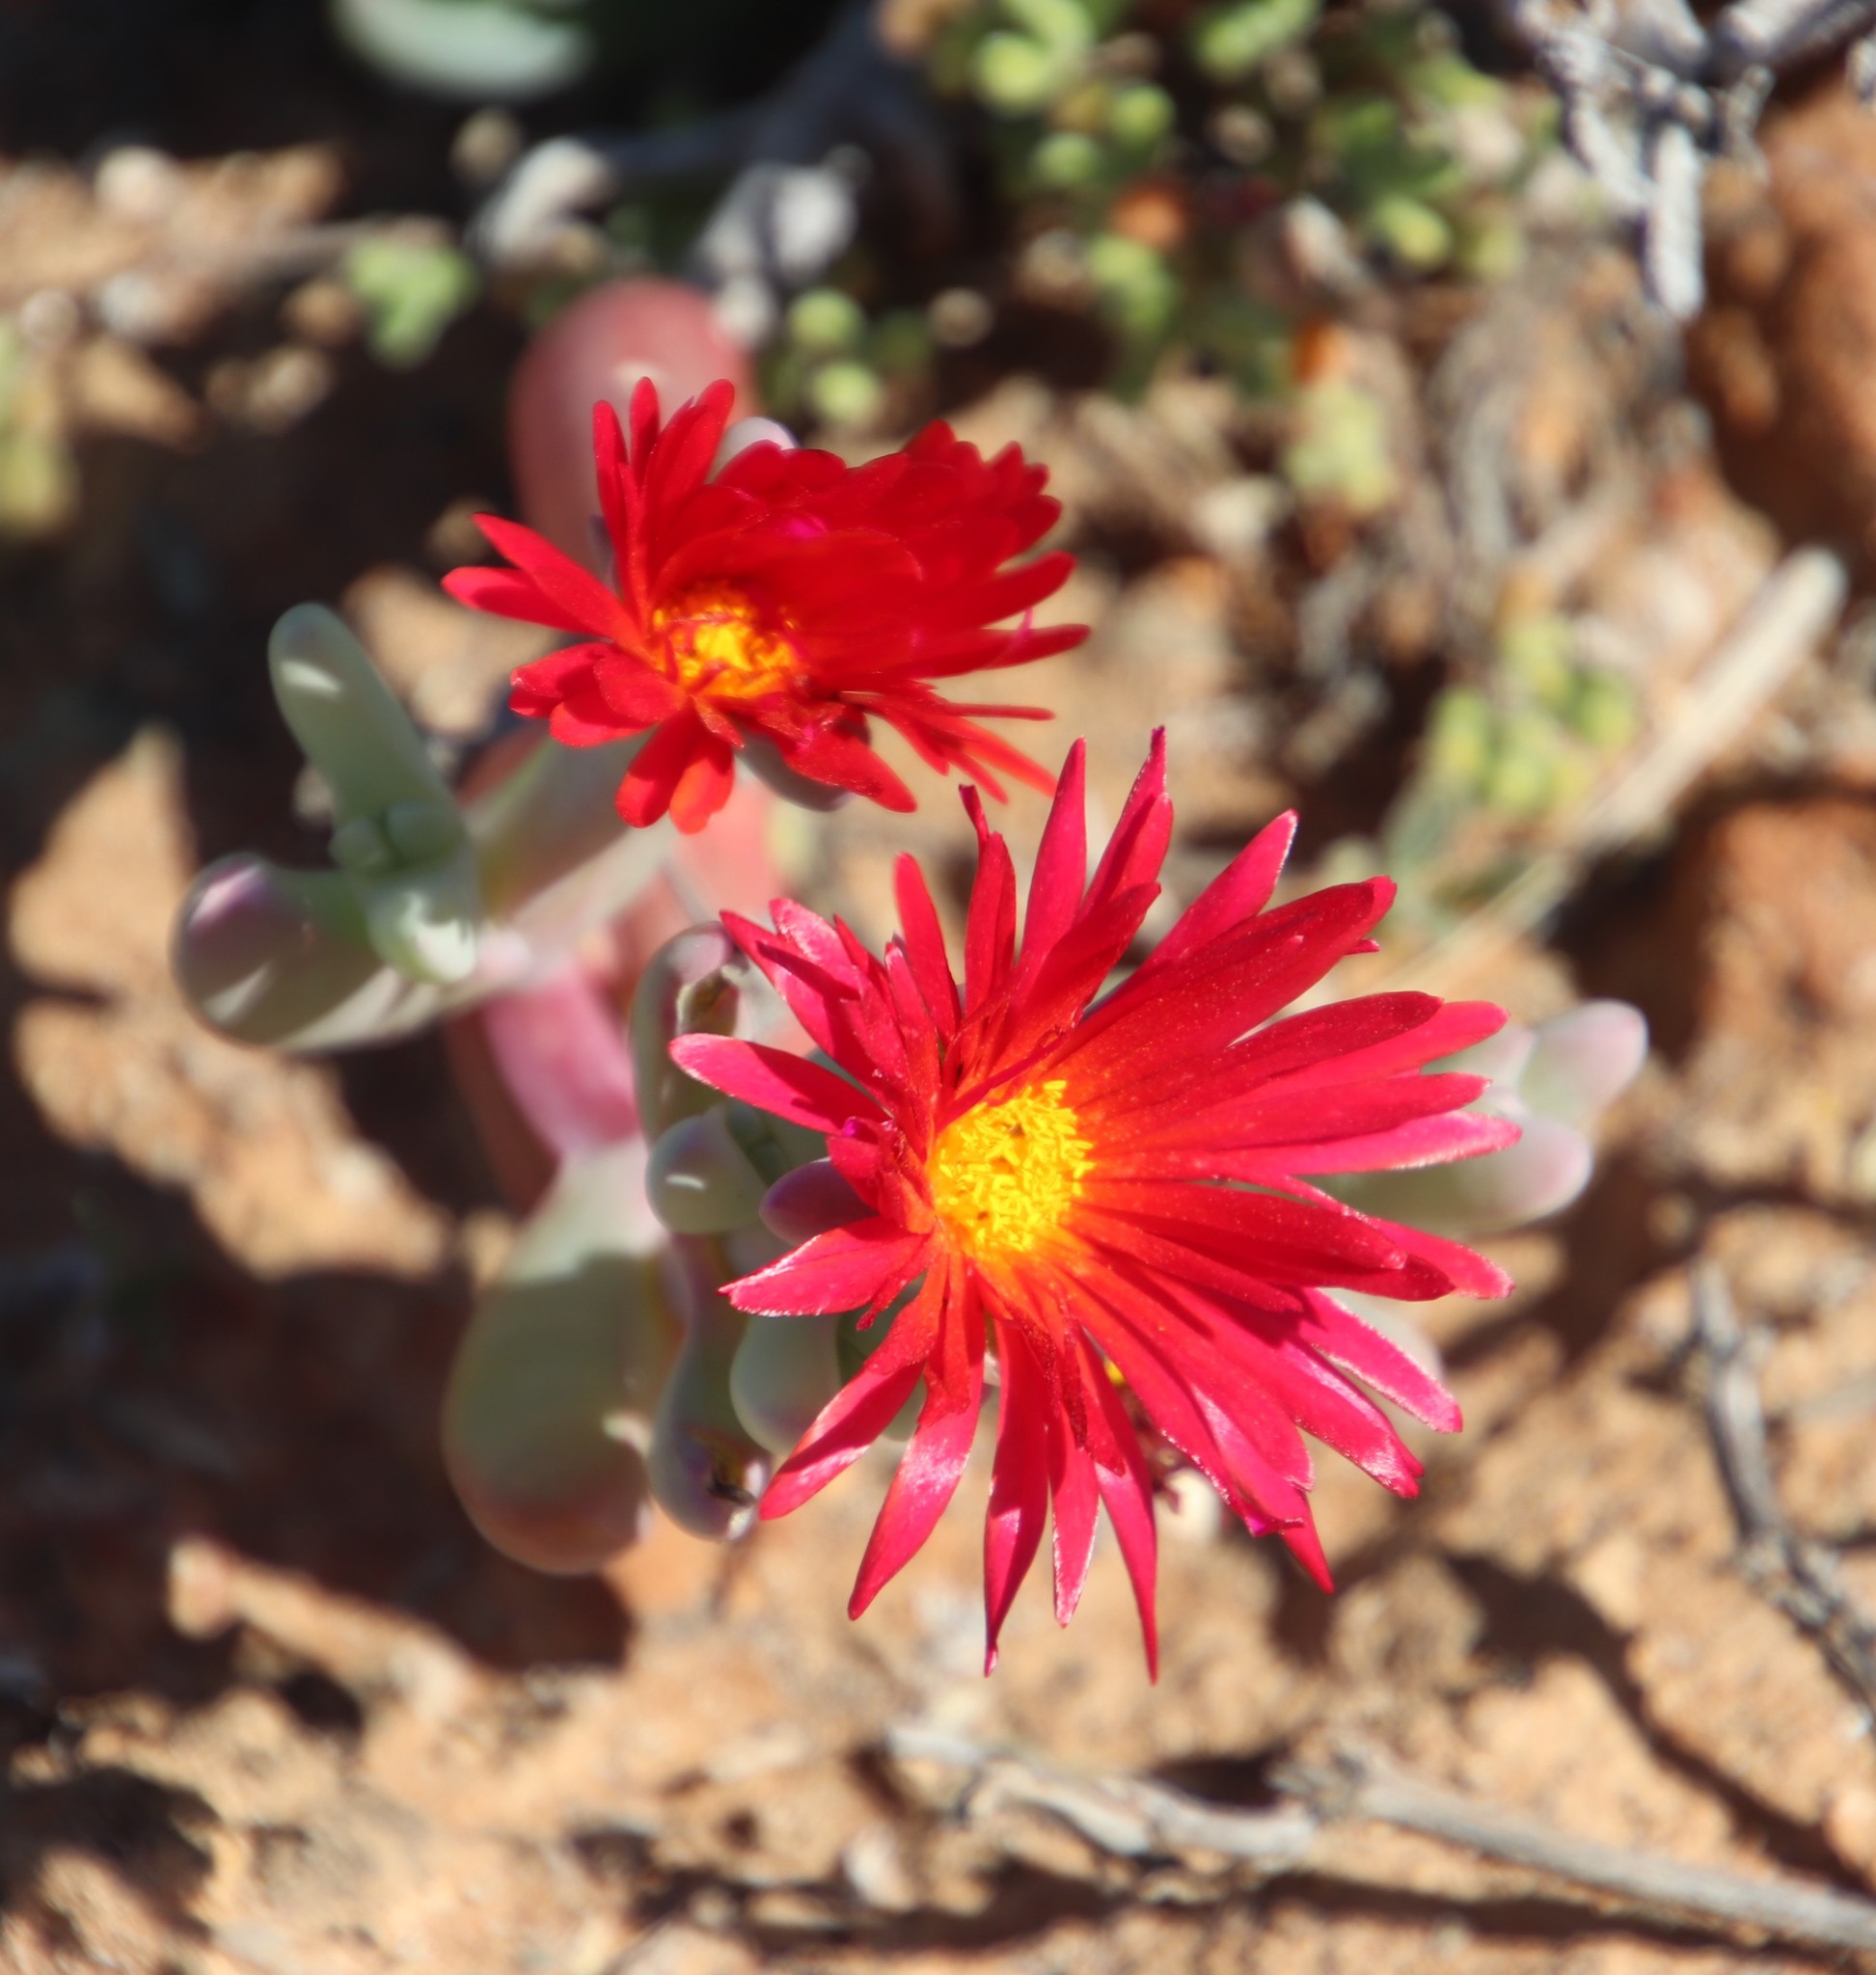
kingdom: Plantae
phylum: Tracheophyta
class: Magnoliopsida
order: Caryophyllales
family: Aizoaceae
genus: Malephora
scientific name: Malephora purpureocrocea
